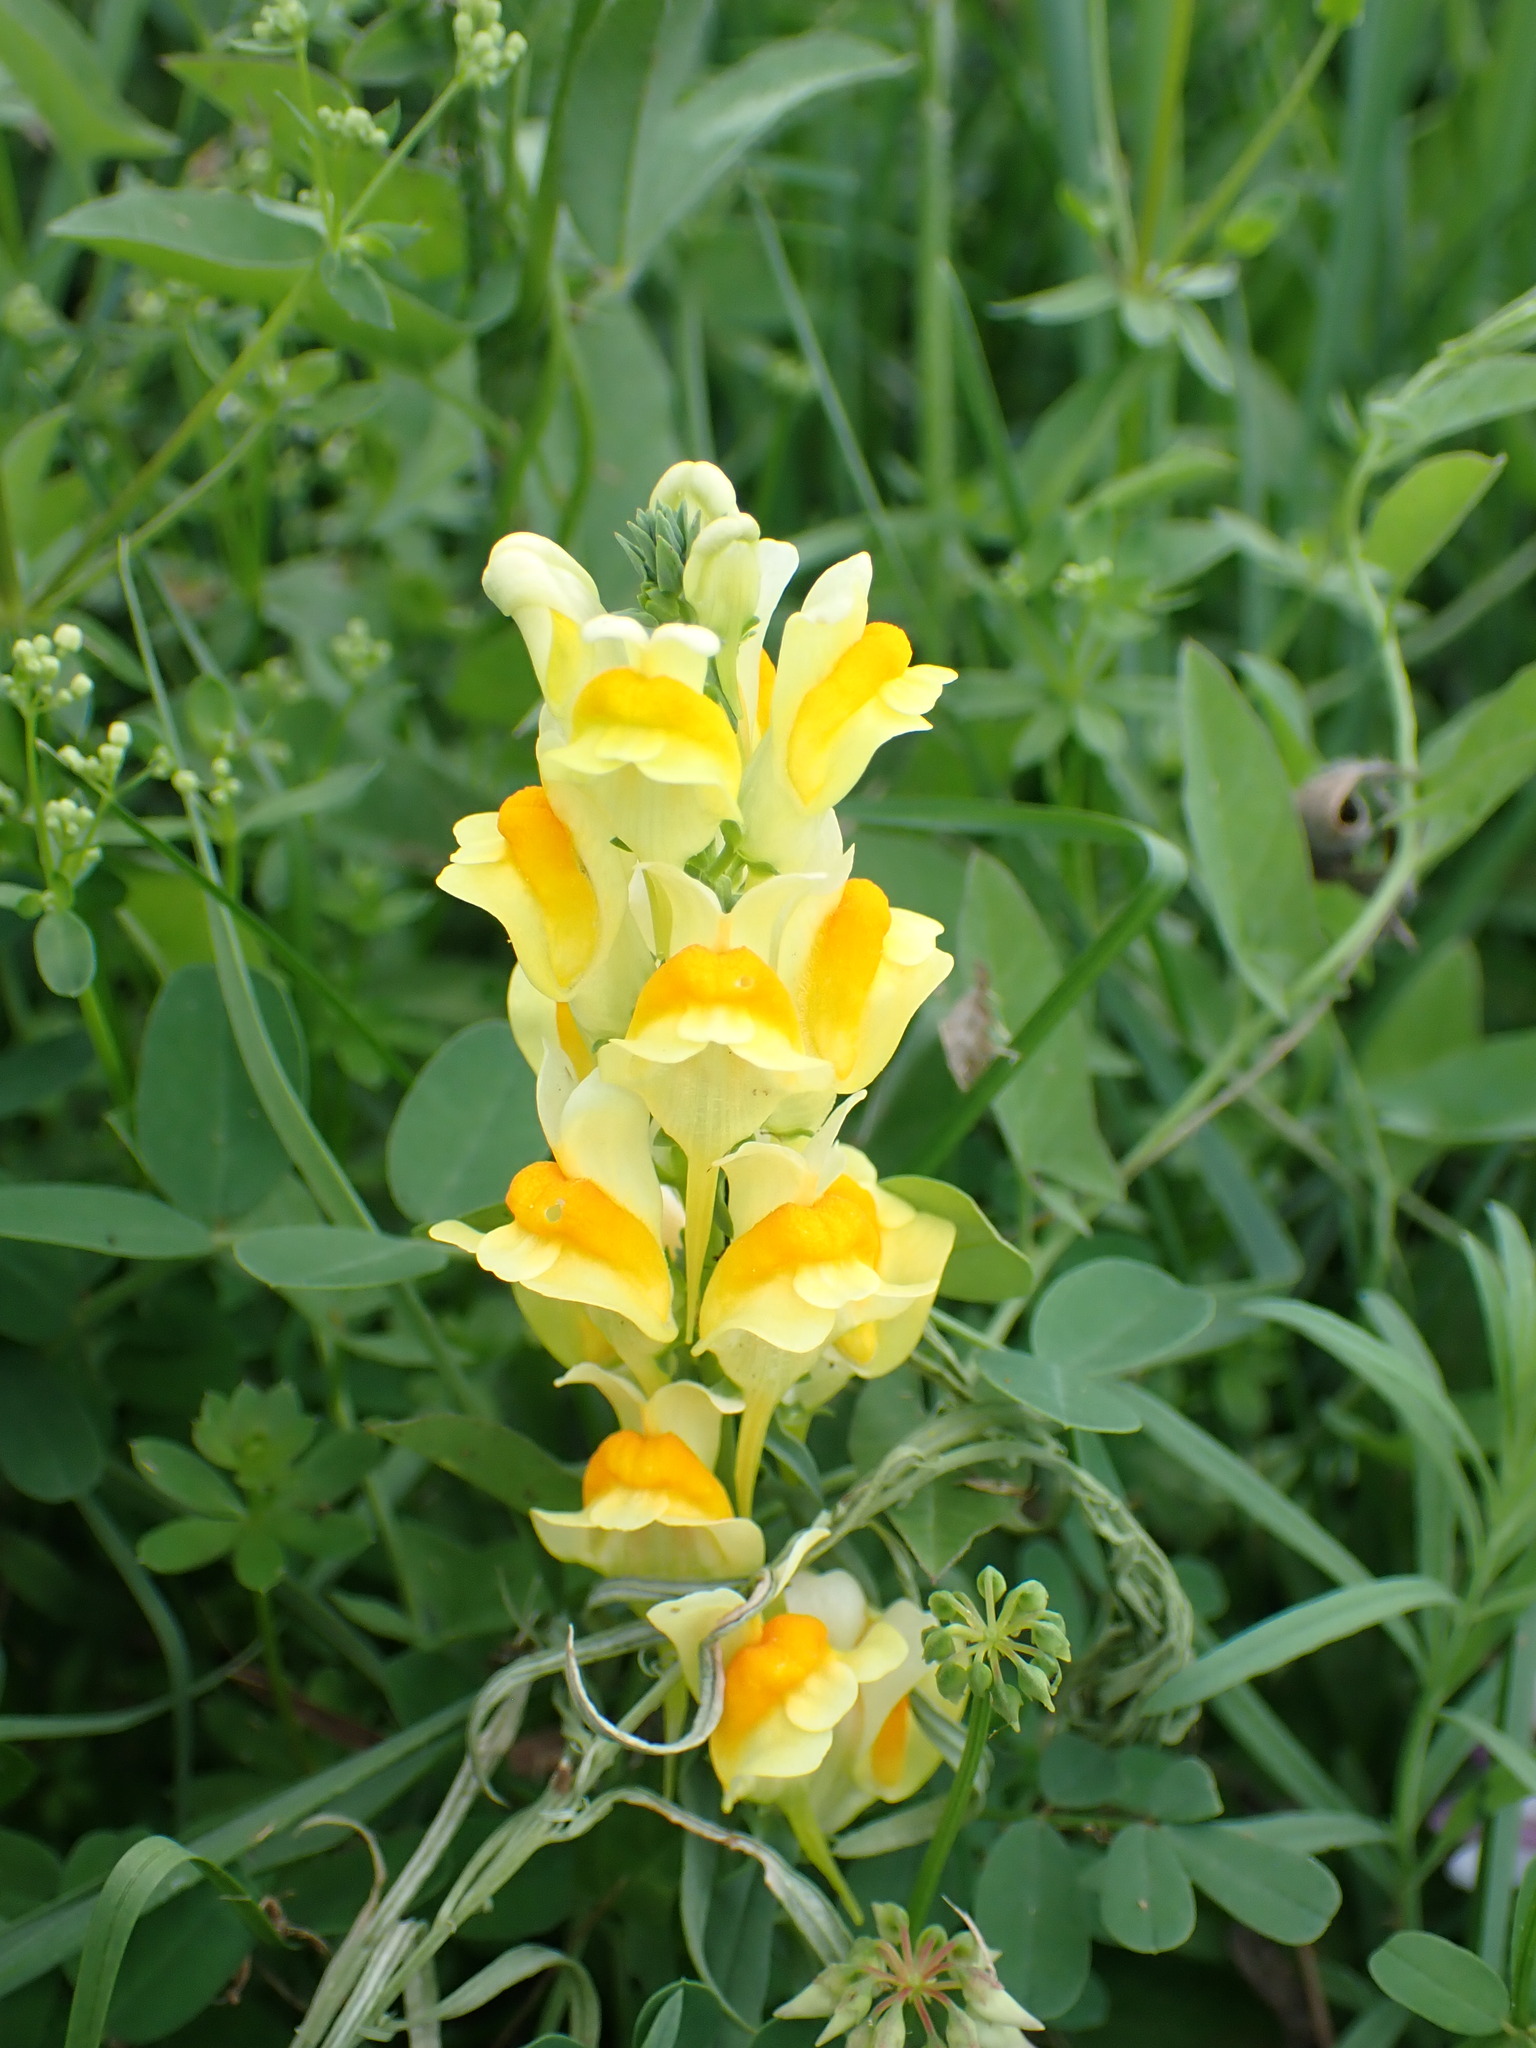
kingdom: Plantae
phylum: Tracheophyta
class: Magnoliopsida
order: Lamiales
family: Plantaginaceae
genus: Linaria
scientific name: Linaria vulgaris
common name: Butter and eggs
